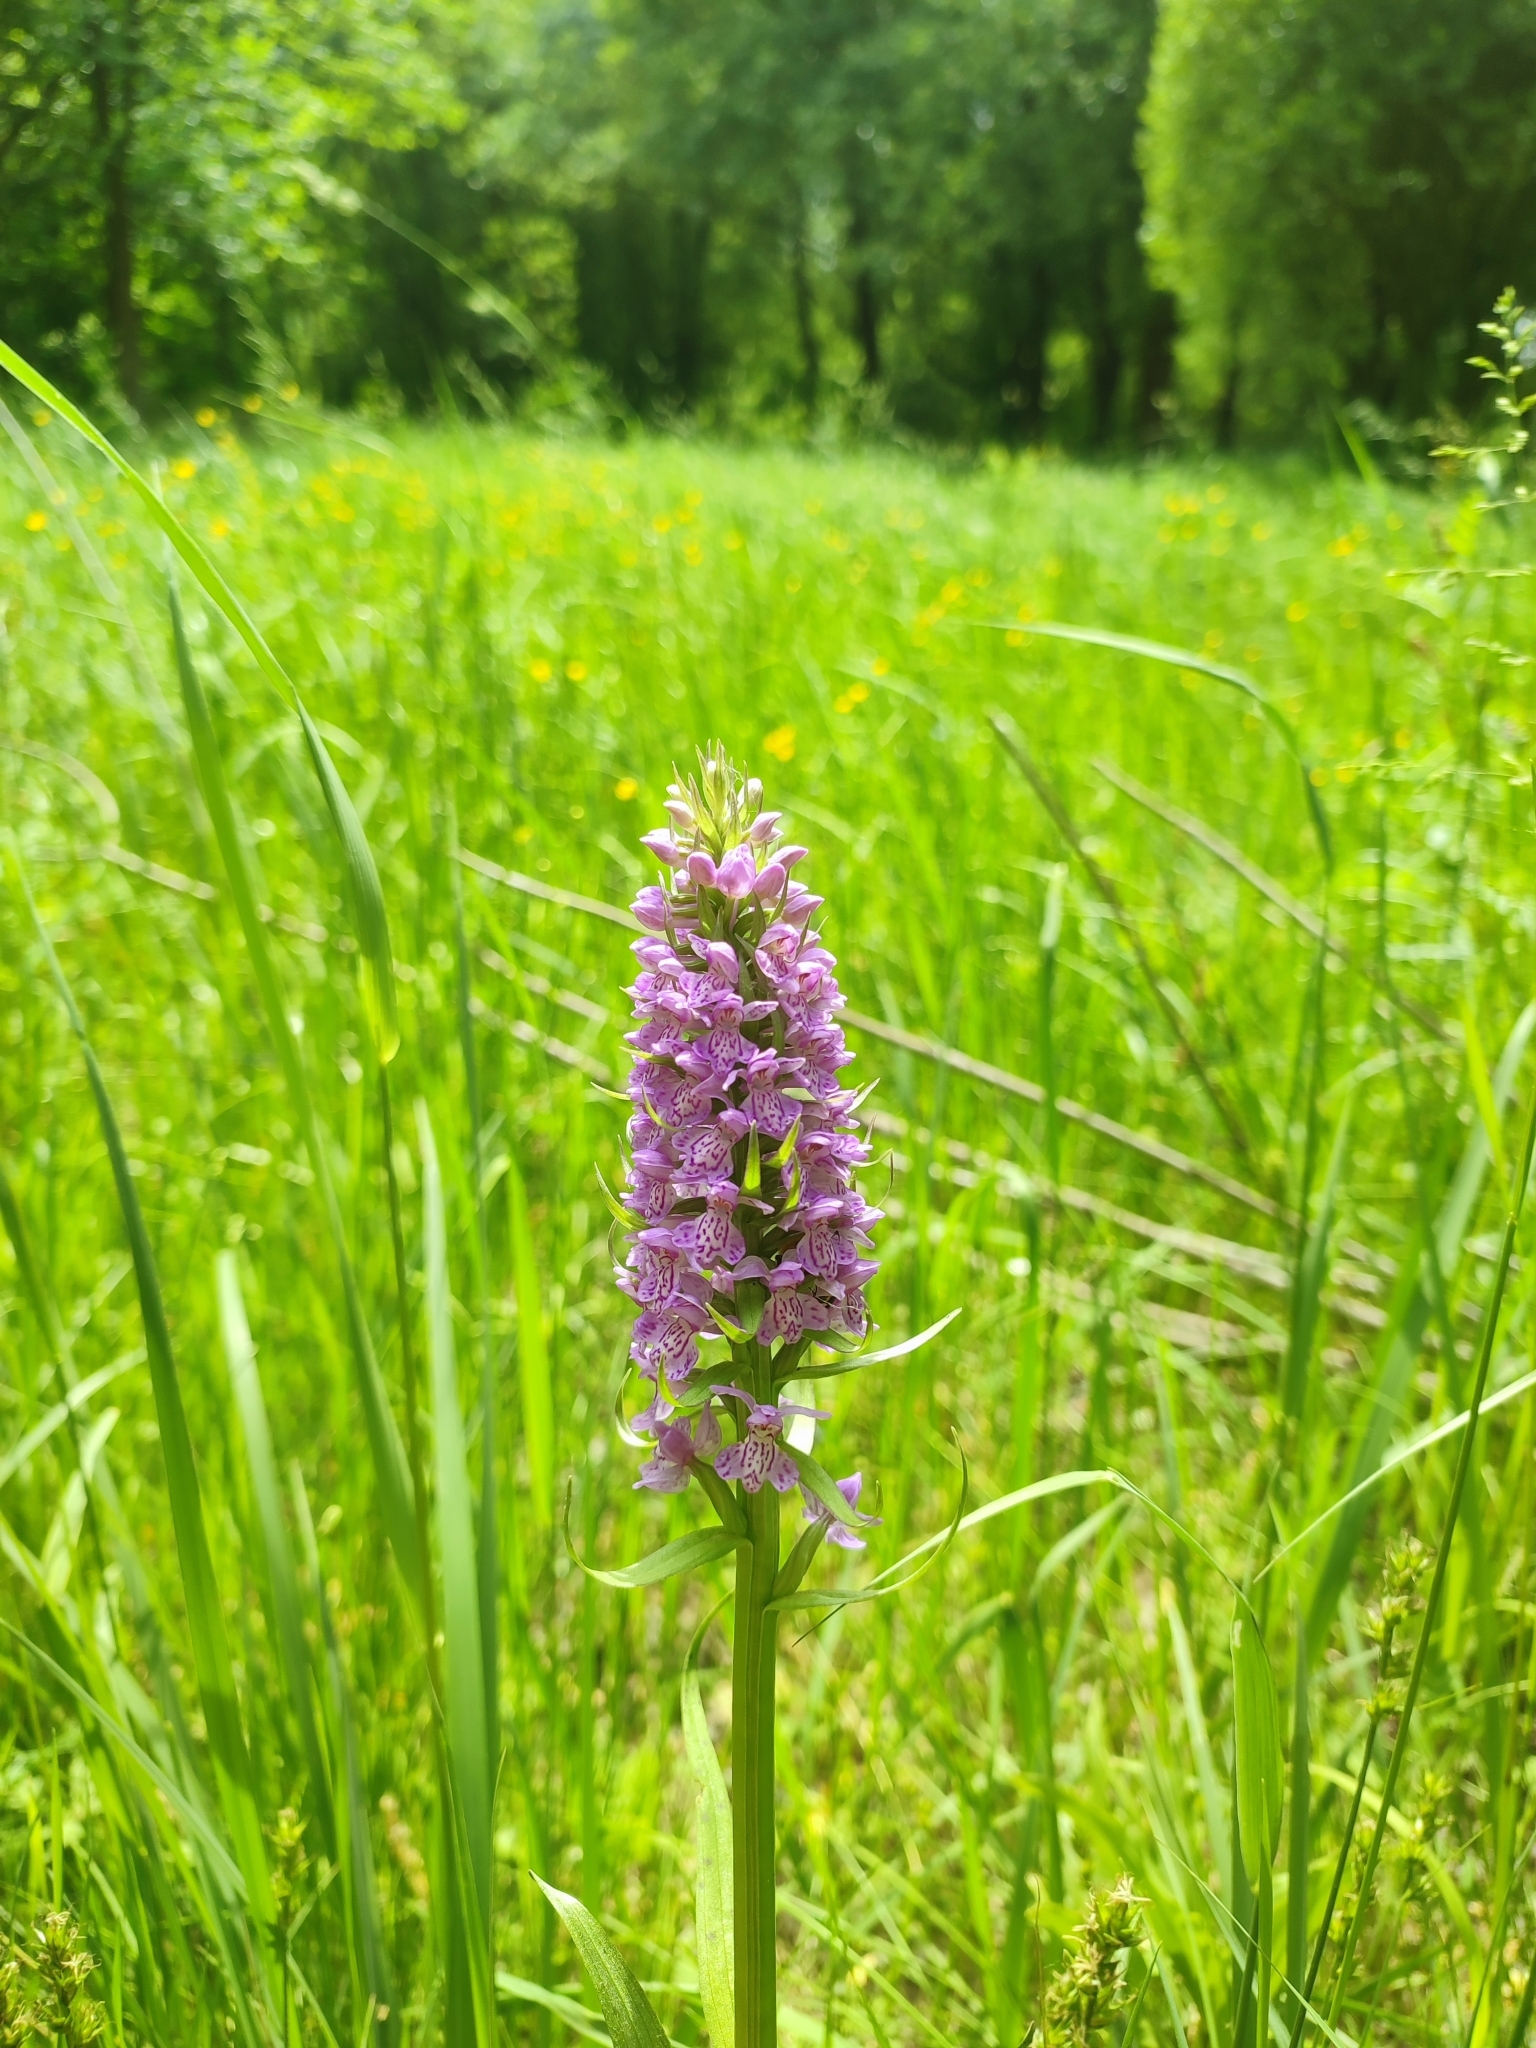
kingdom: Plantae
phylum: Tracheophyta
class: Liliopsida
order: Asparagales
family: Orchidaceae
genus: Dactylorhiza
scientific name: Dactylorhiza majalis
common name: Marsh orchid
